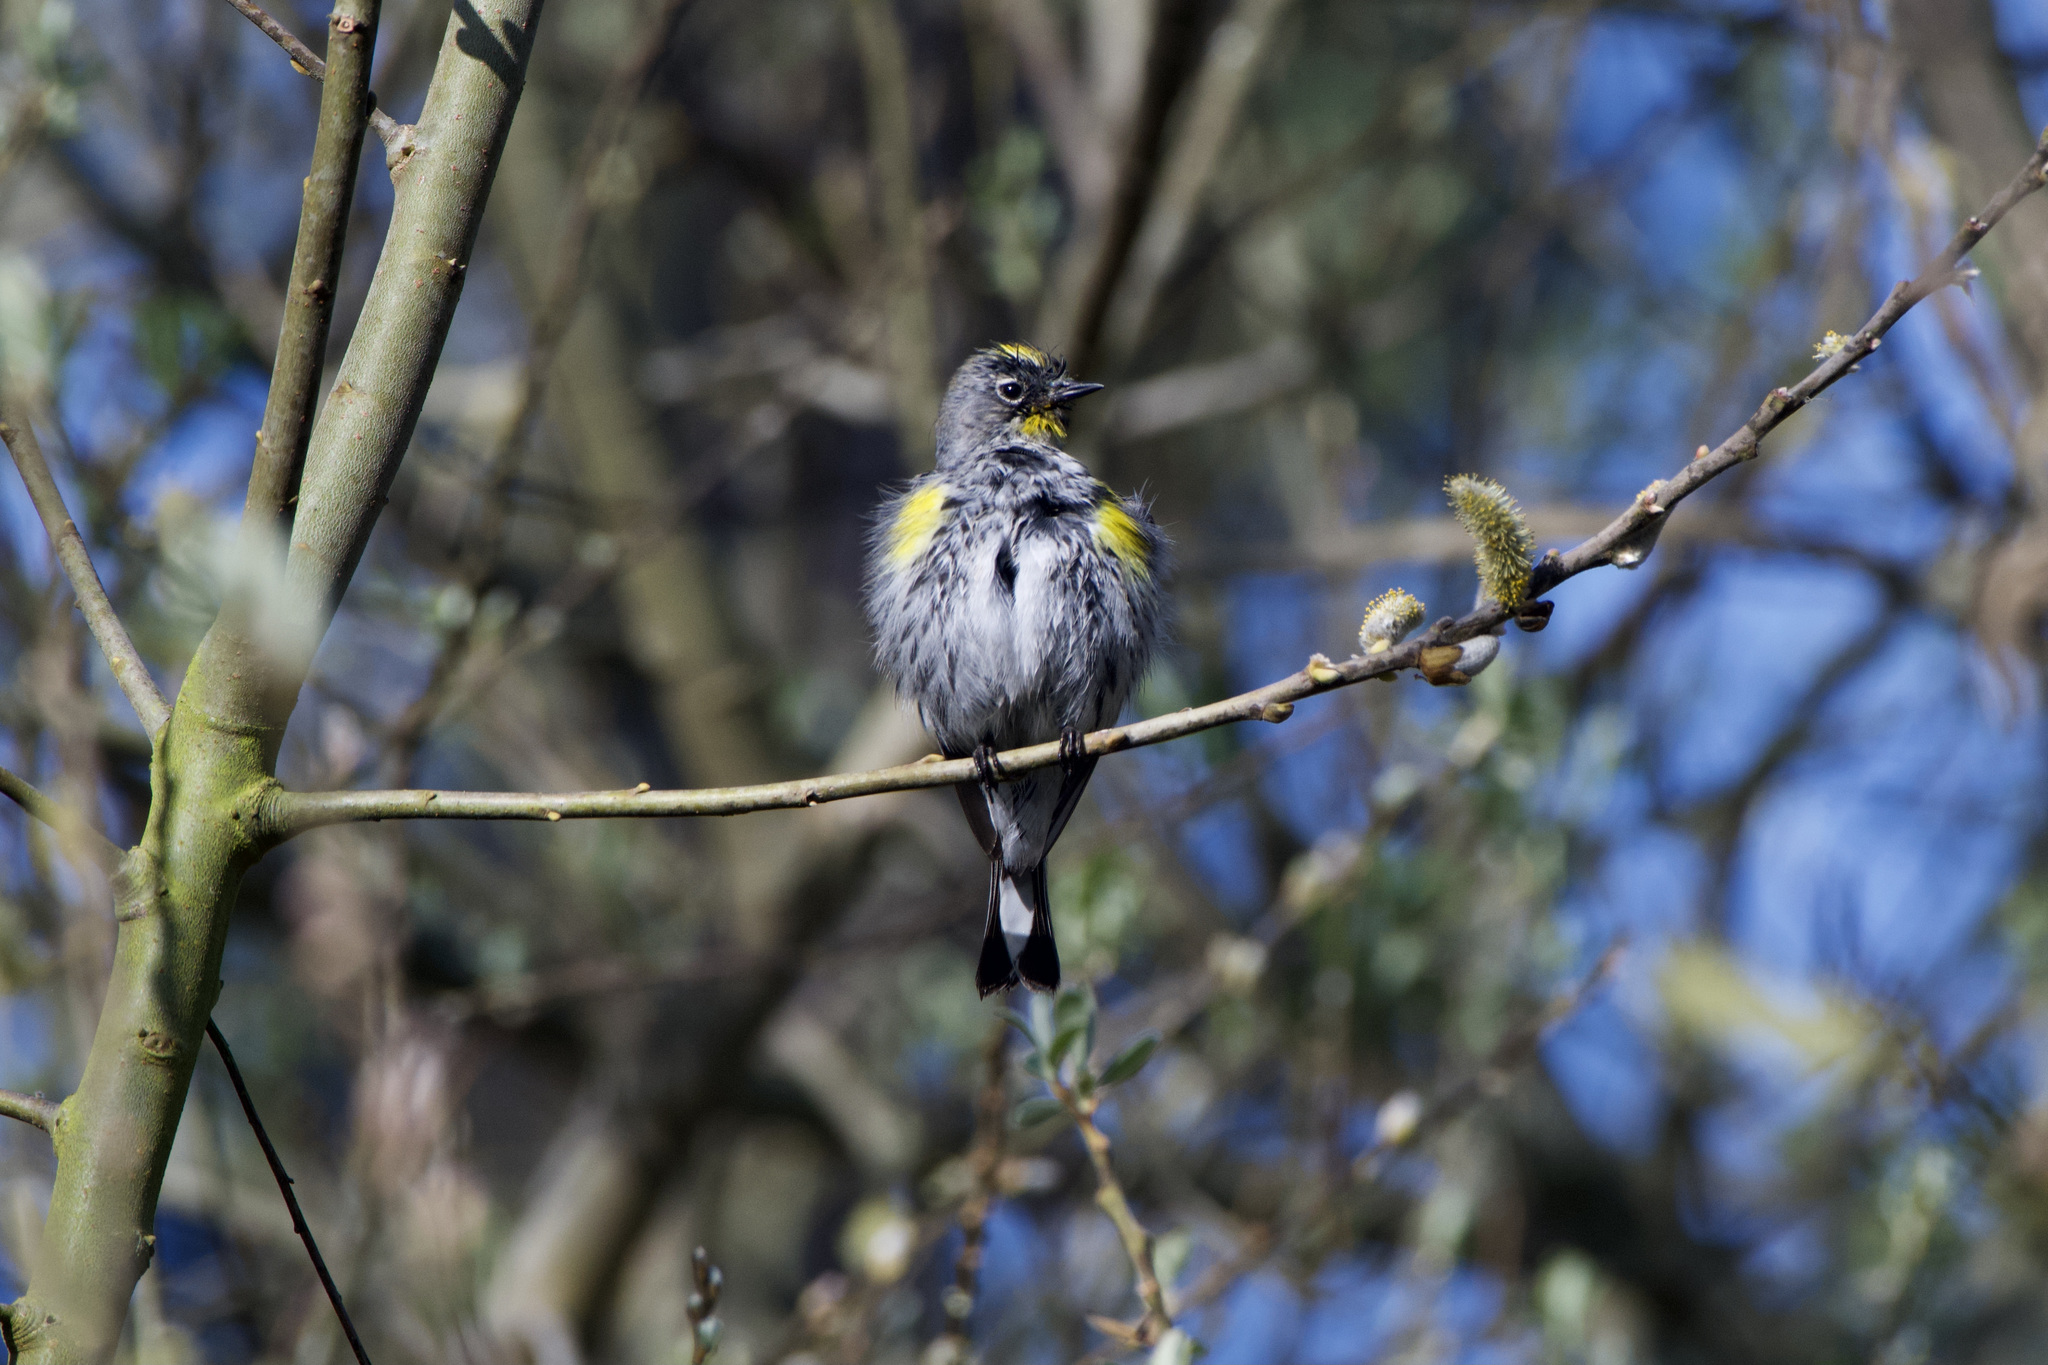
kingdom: Animalia
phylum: Chordata
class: Aves
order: Passeriformes
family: Parulidae
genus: Setophaga
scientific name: Setophaga auduboni
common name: Audubon's warbler
